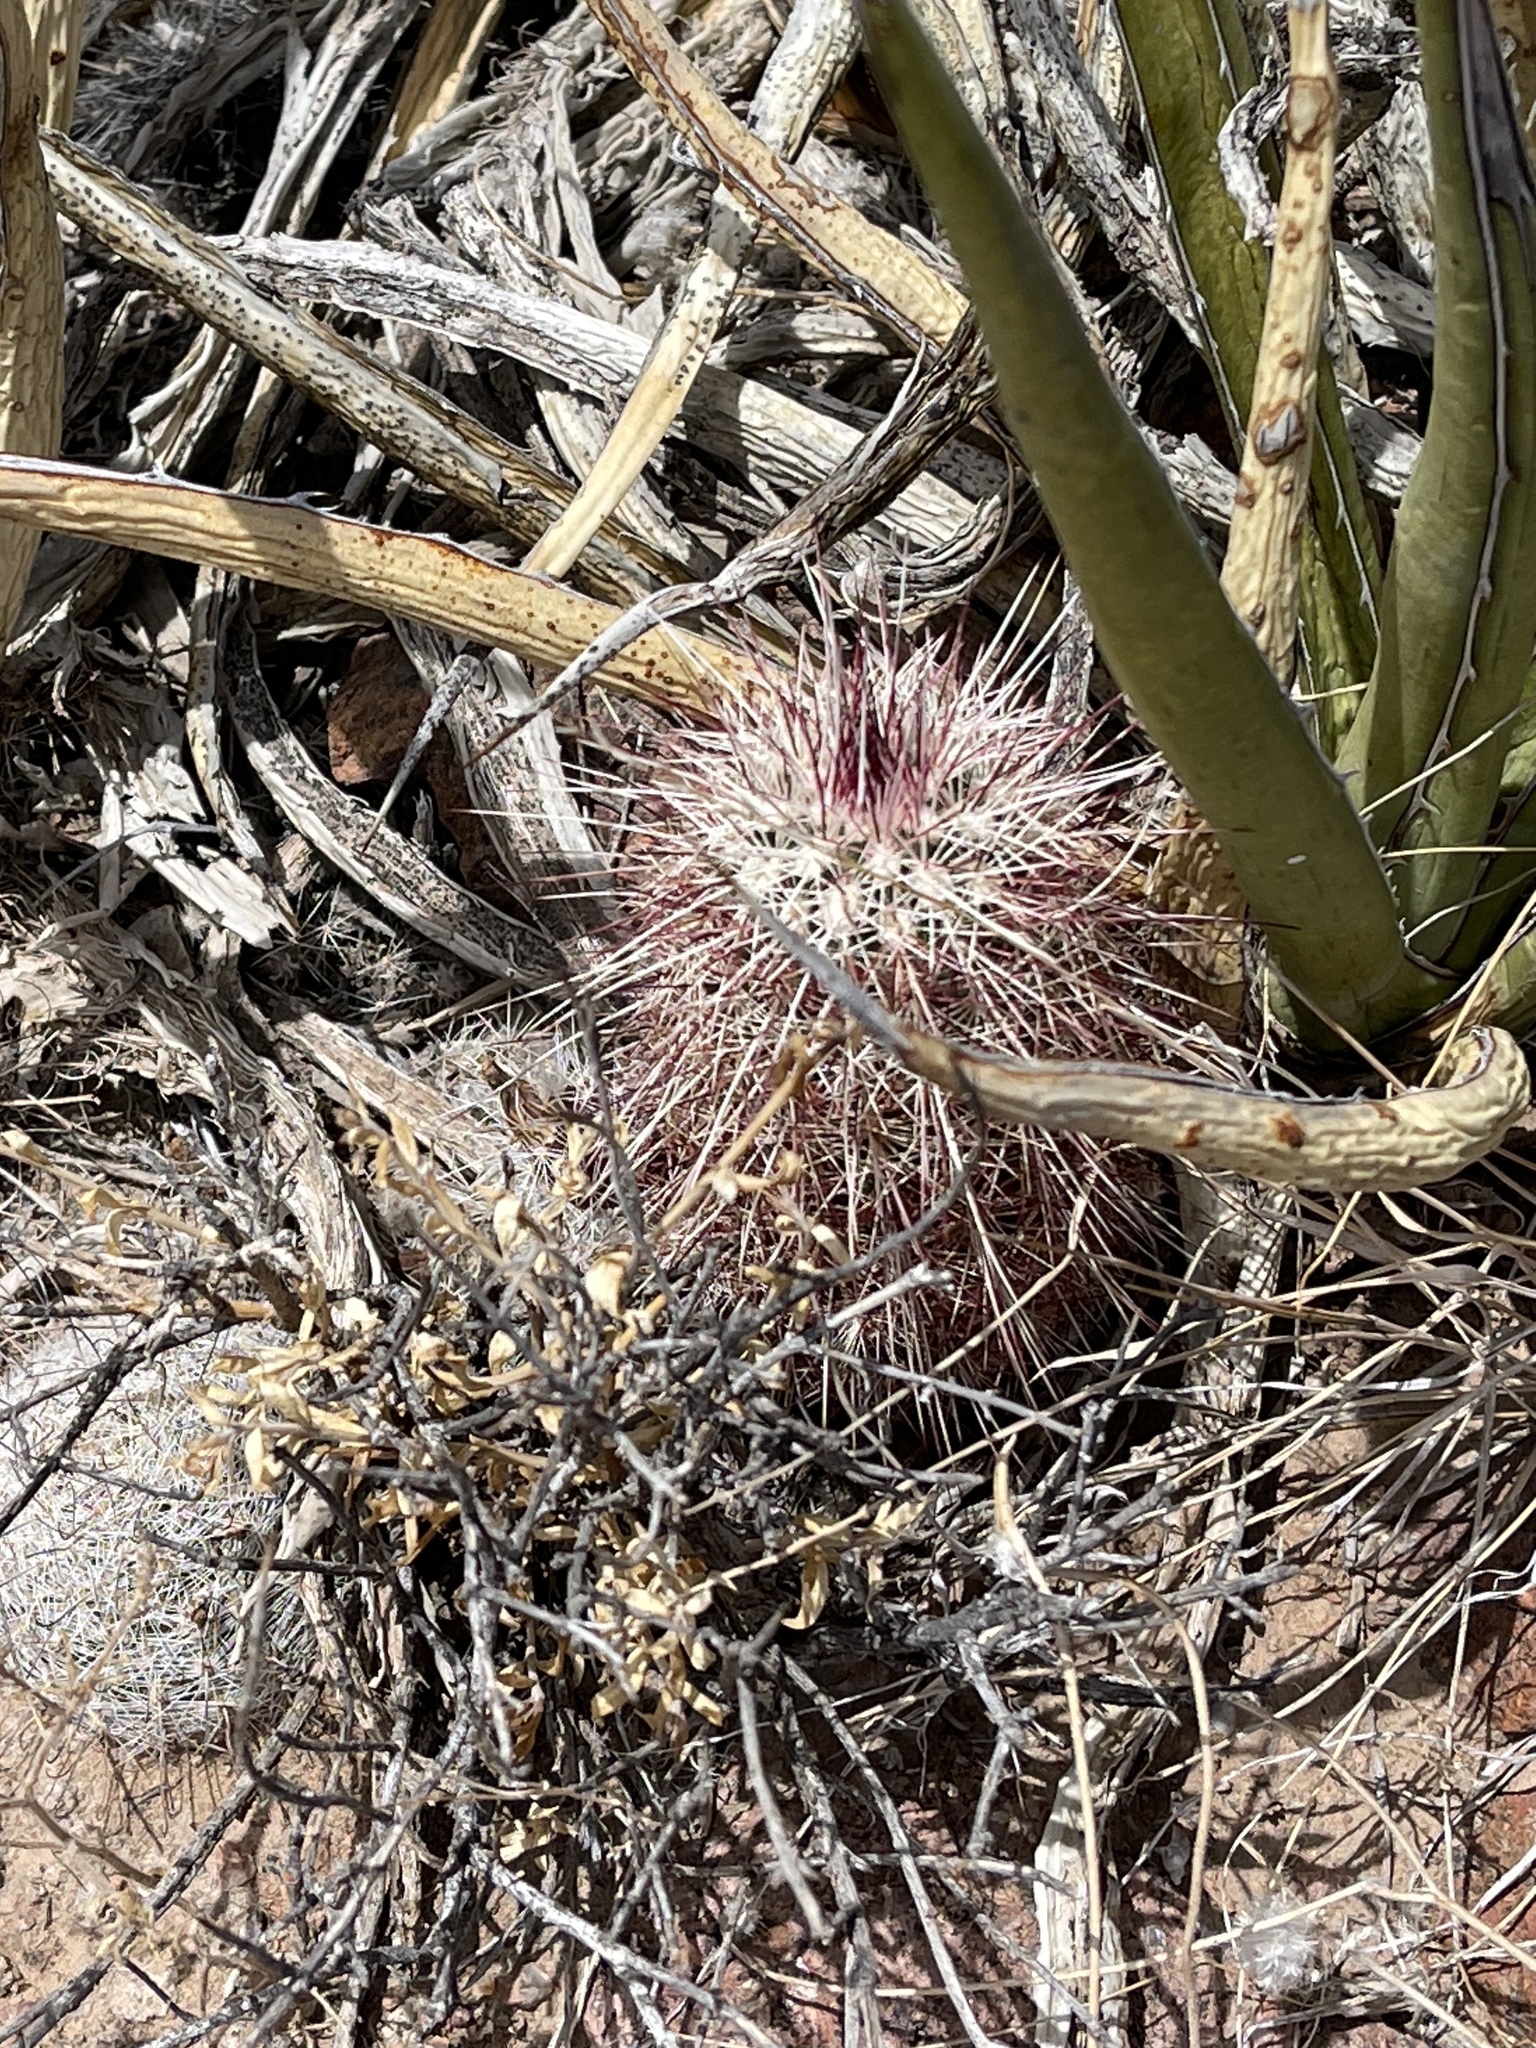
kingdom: Plantae
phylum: Tracheophyta
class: Magnoliopsida
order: Caryophyllales
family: Cactaceae
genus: Echinocereus
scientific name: Echinocereus viridiflorus
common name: Nylon hedgehog cactus
